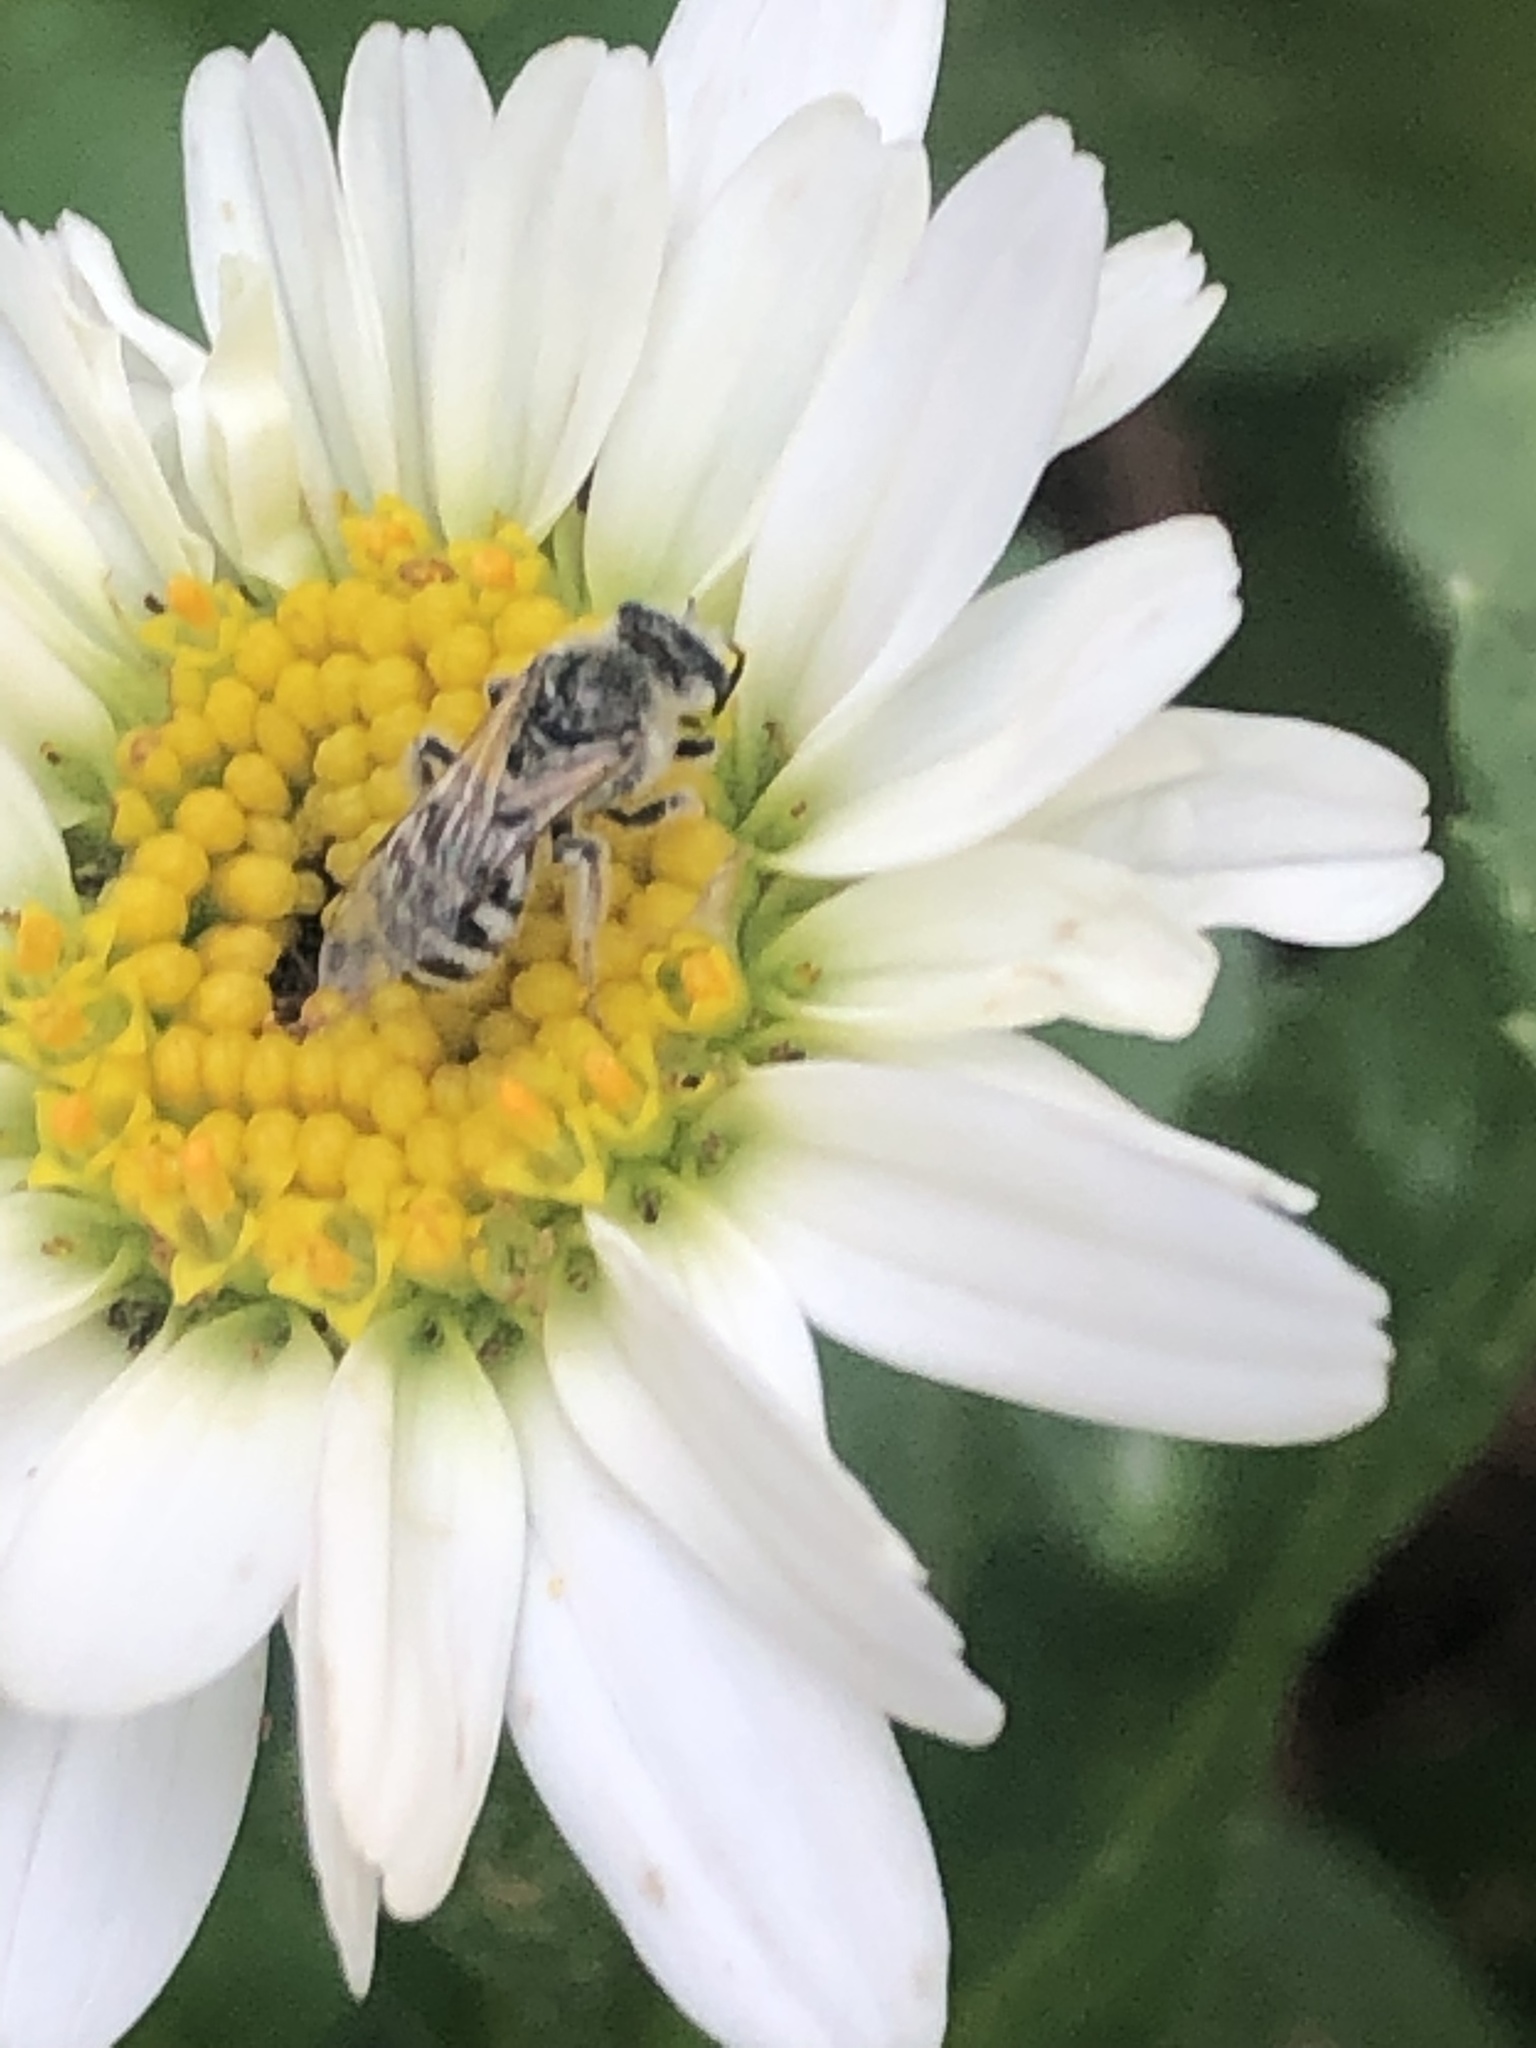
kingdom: Animalia
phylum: Arthropoda
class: Insecta
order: Hymenoptera
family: Halictidae
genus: Lasioglossum
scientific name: Lasioglossum sisymbrii
